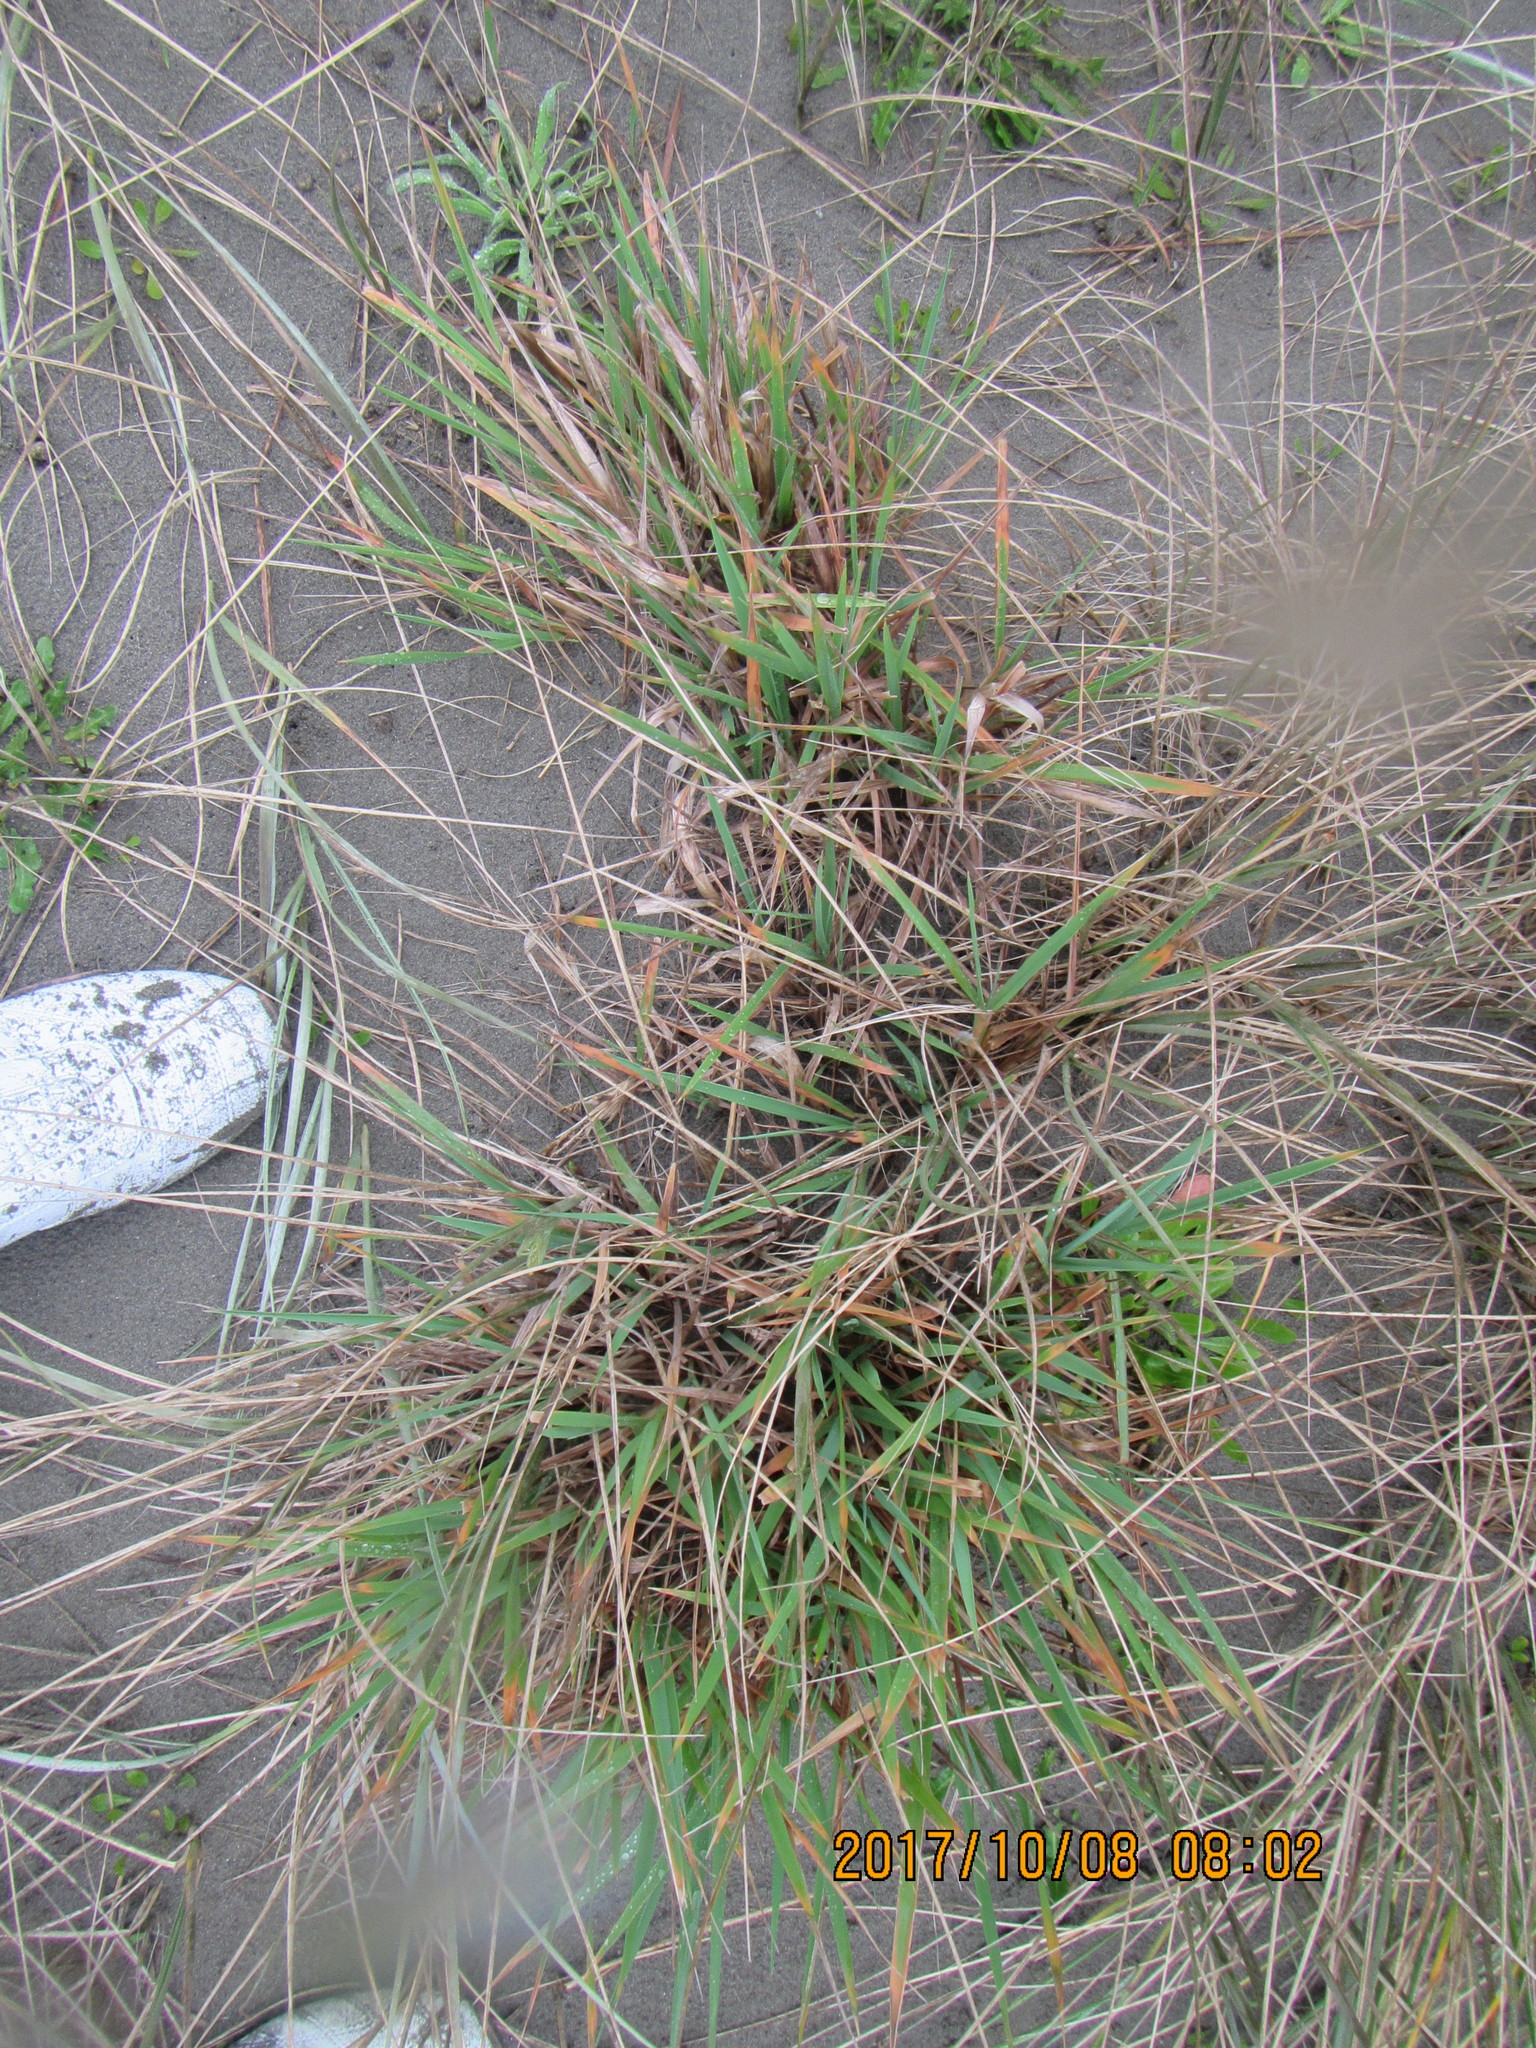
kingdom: Plantae
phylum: Tracheophyta
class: Liliopsida
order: Poales
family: Poaceae
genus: Lachnagrostis
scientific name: Lachnagrostis billardierei
